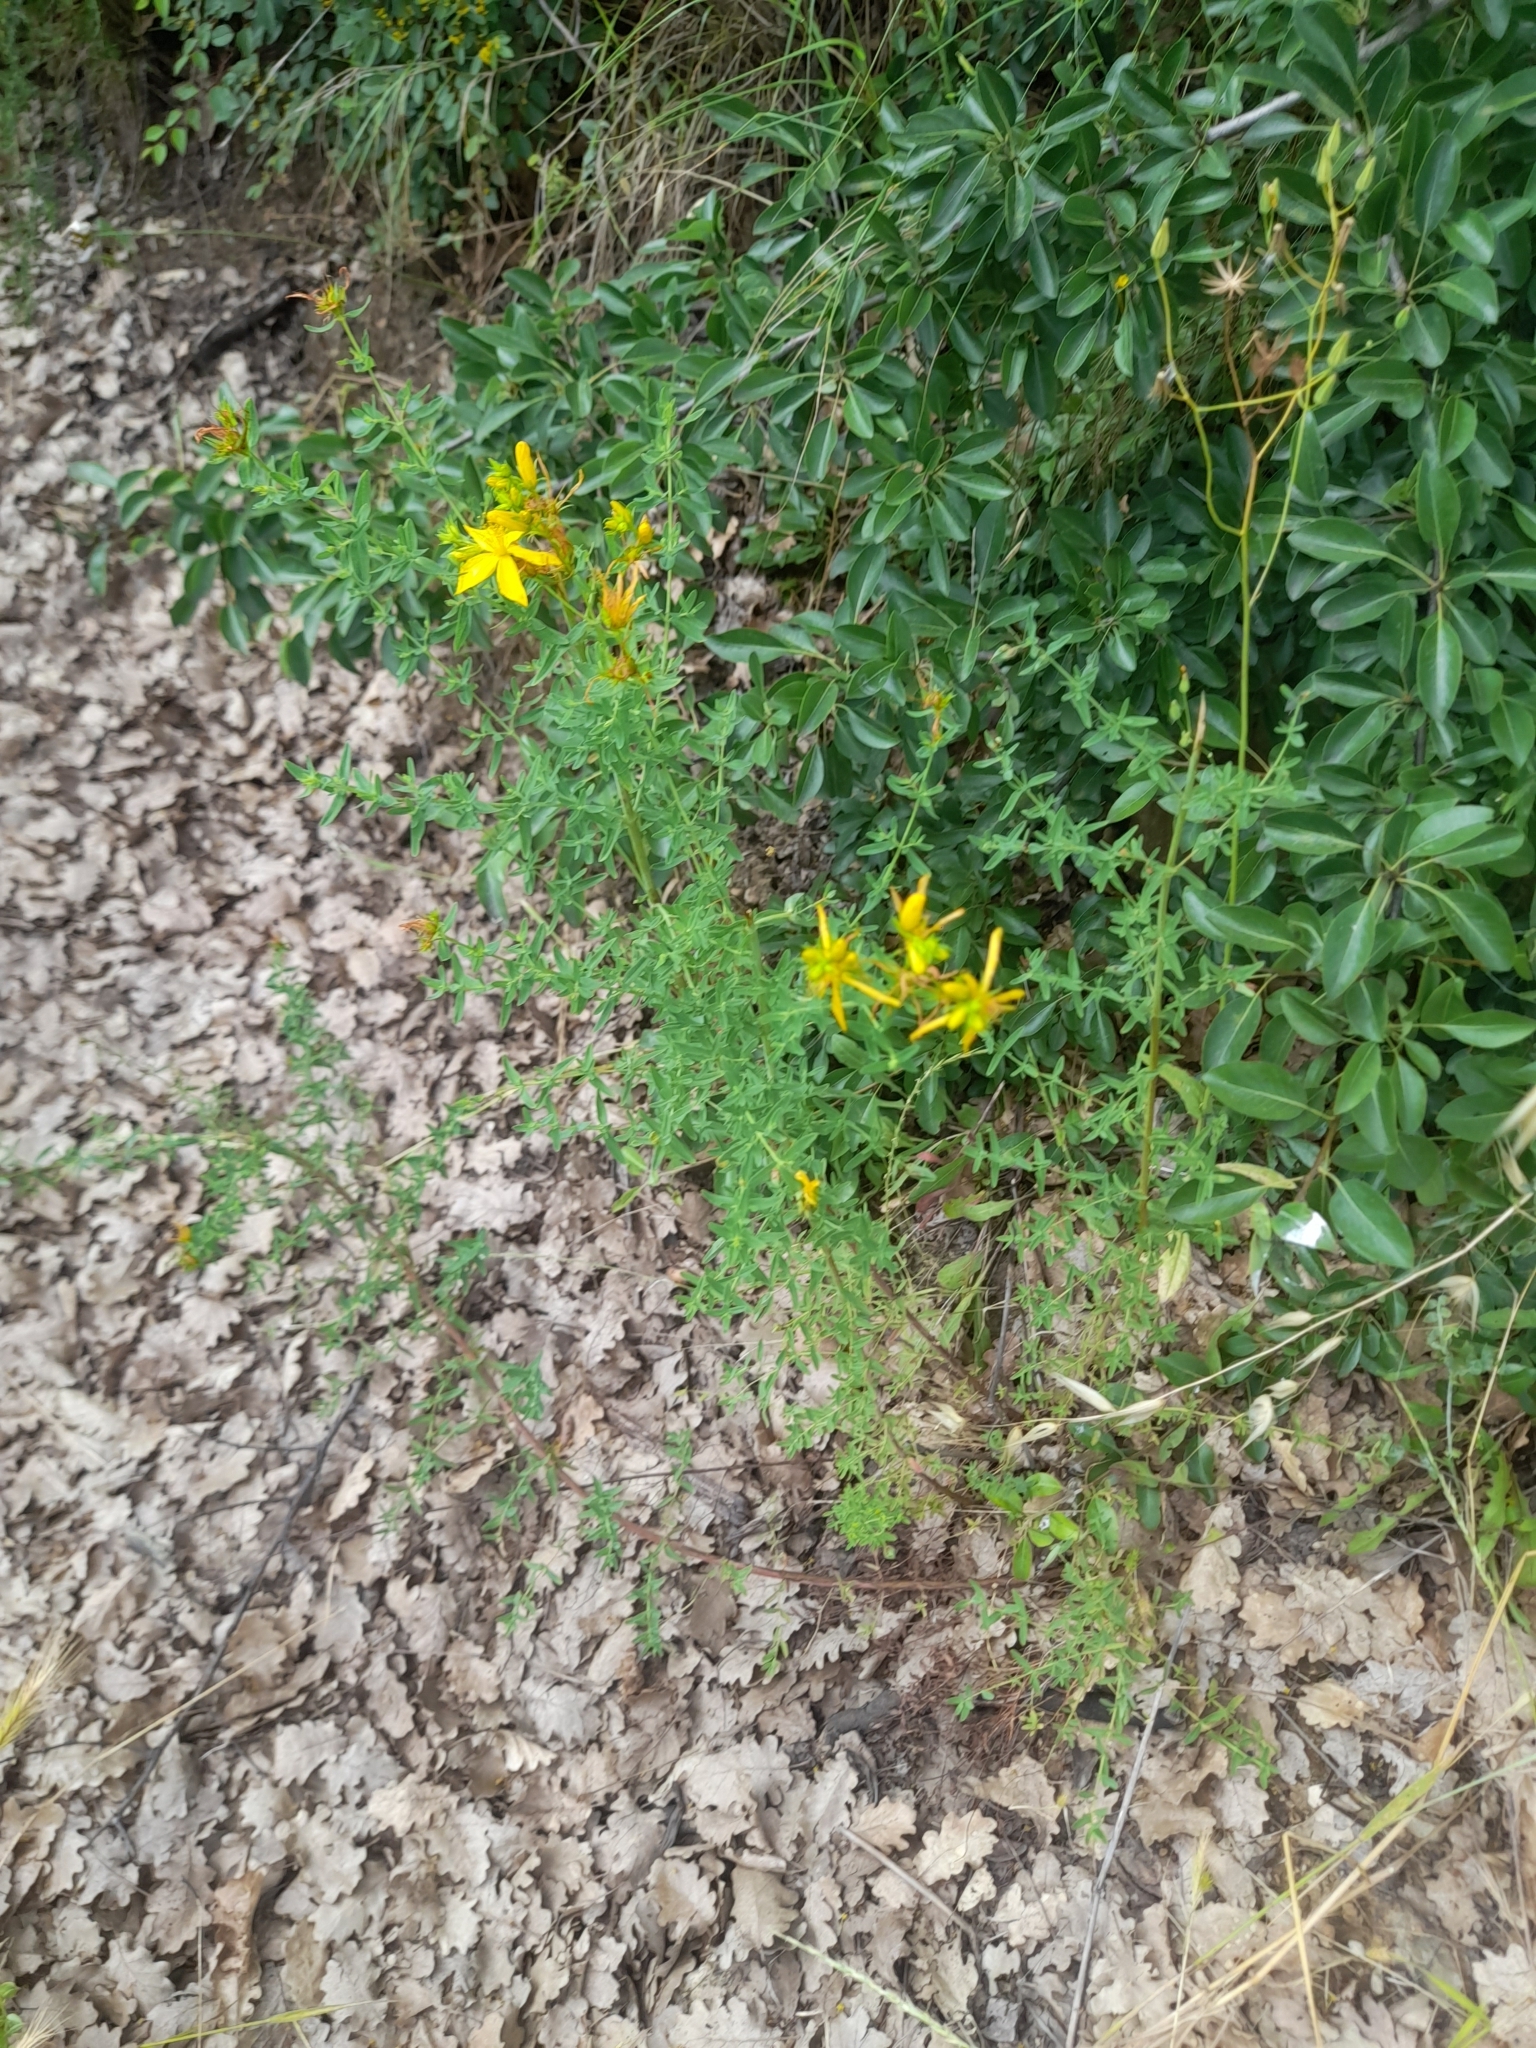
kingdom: Plantae
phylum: Tracheophyta
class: Magnoliopsida
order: Malpighiales
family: Hypericaceae
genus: Hypericum
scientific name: Hypericum perforatum
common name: Common st. johnswort
